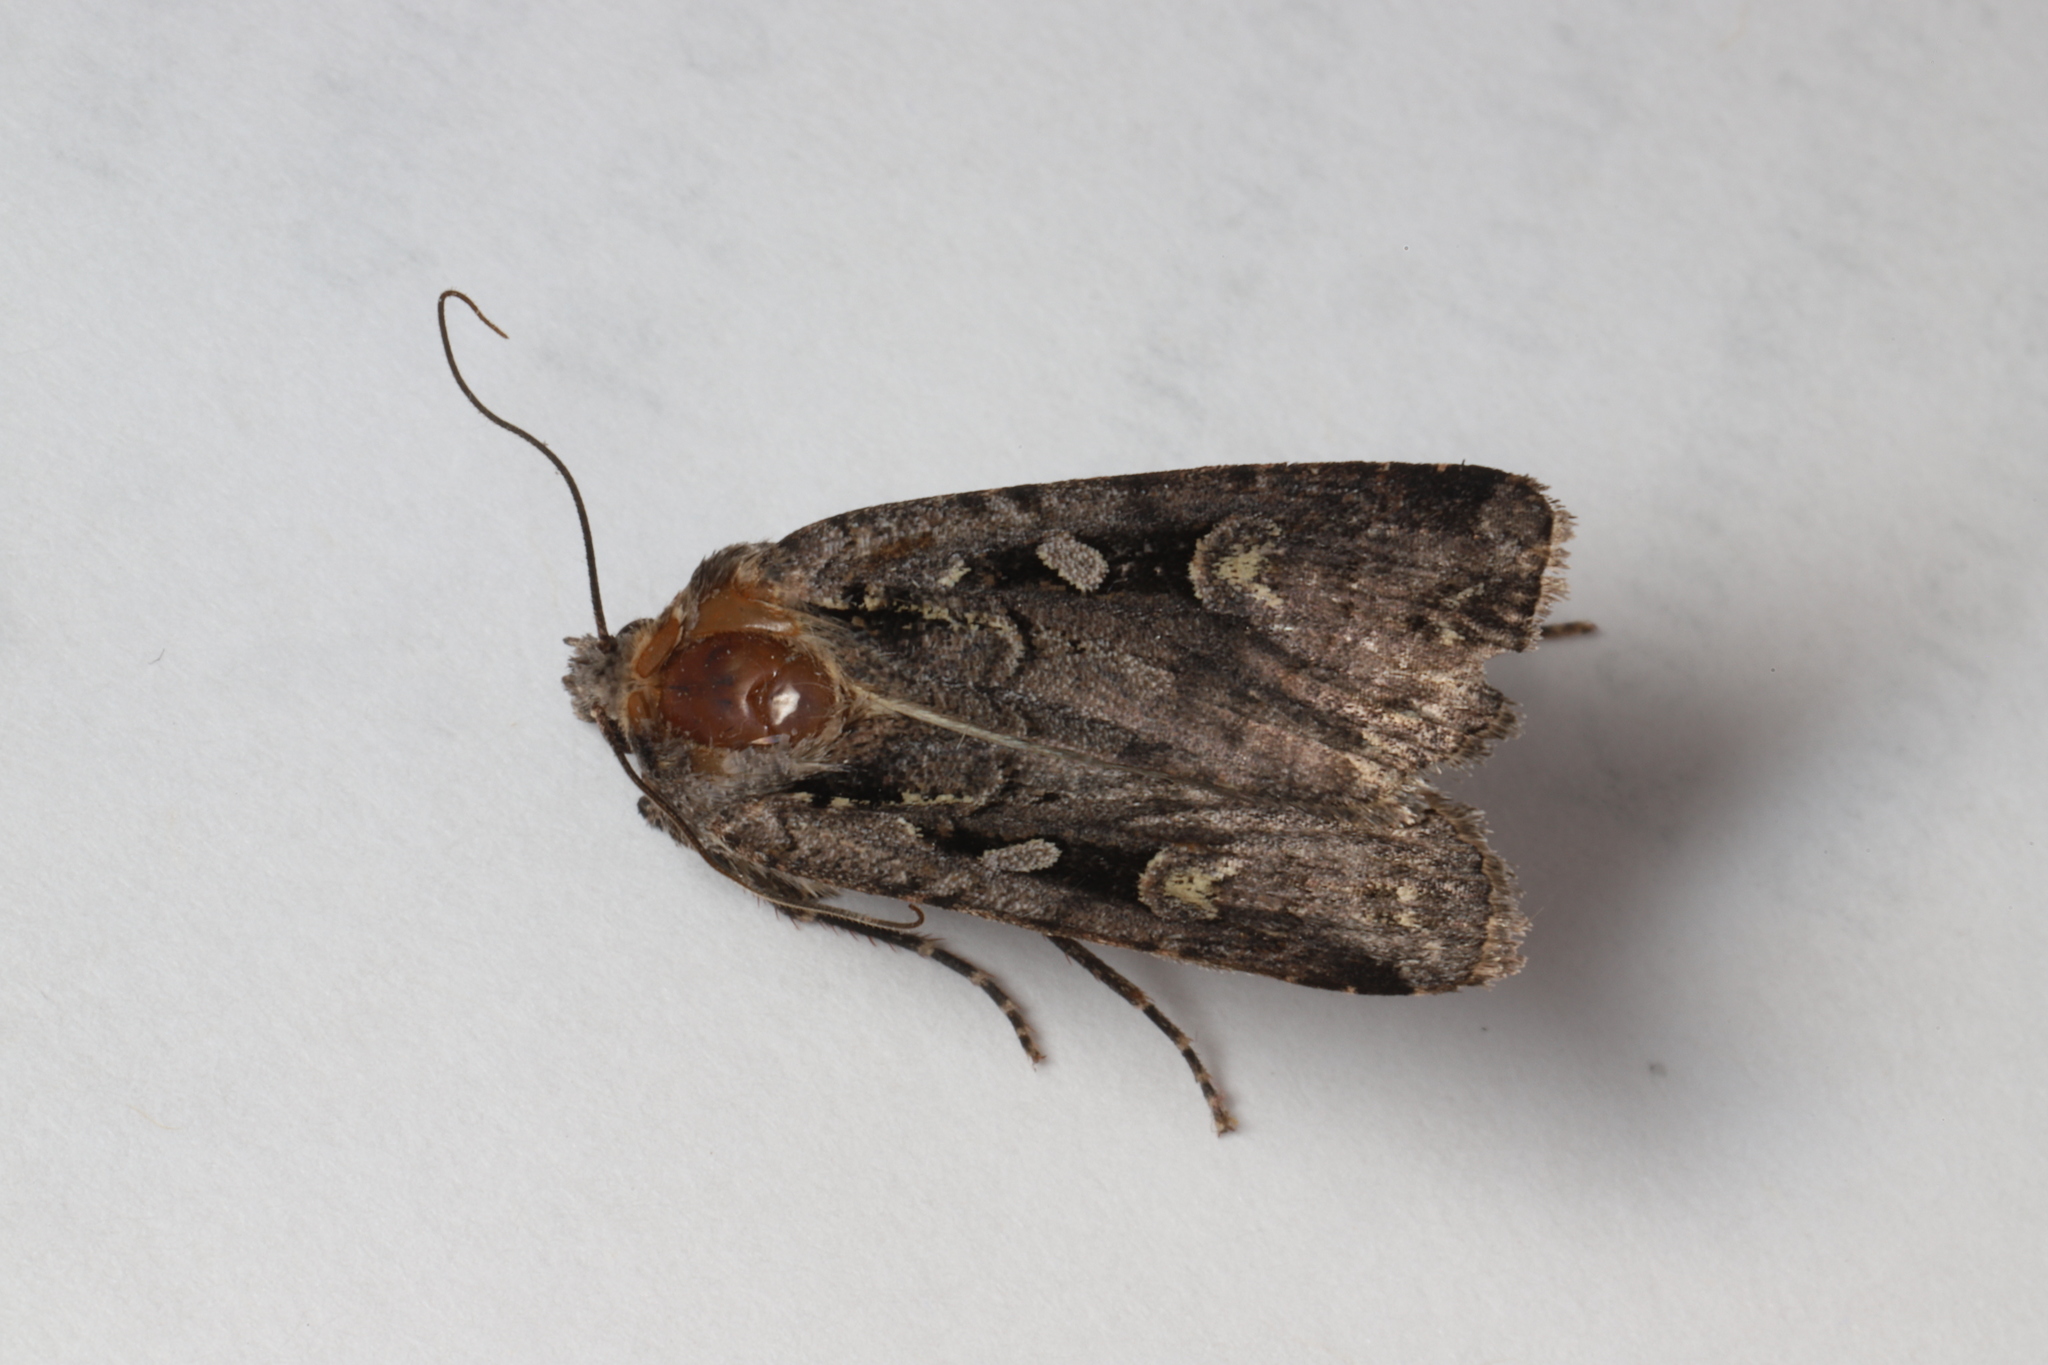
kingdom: Animalia
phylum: Arthropoda
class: Insecta
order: Lepidoptera
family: Noctuidae
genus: Euxoa
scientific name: Euxoa tessellata
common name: Striped cutworm
